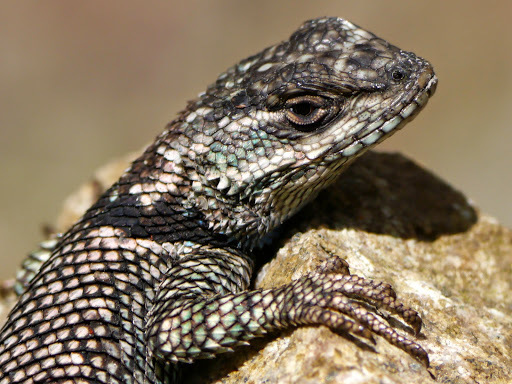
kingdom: Animalia
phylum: Chordata
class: Squamata
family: Phrynosomatidae
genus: Sceloporus
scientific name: Sceloporus jarrovii
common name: Yarrow's spiny lizard
